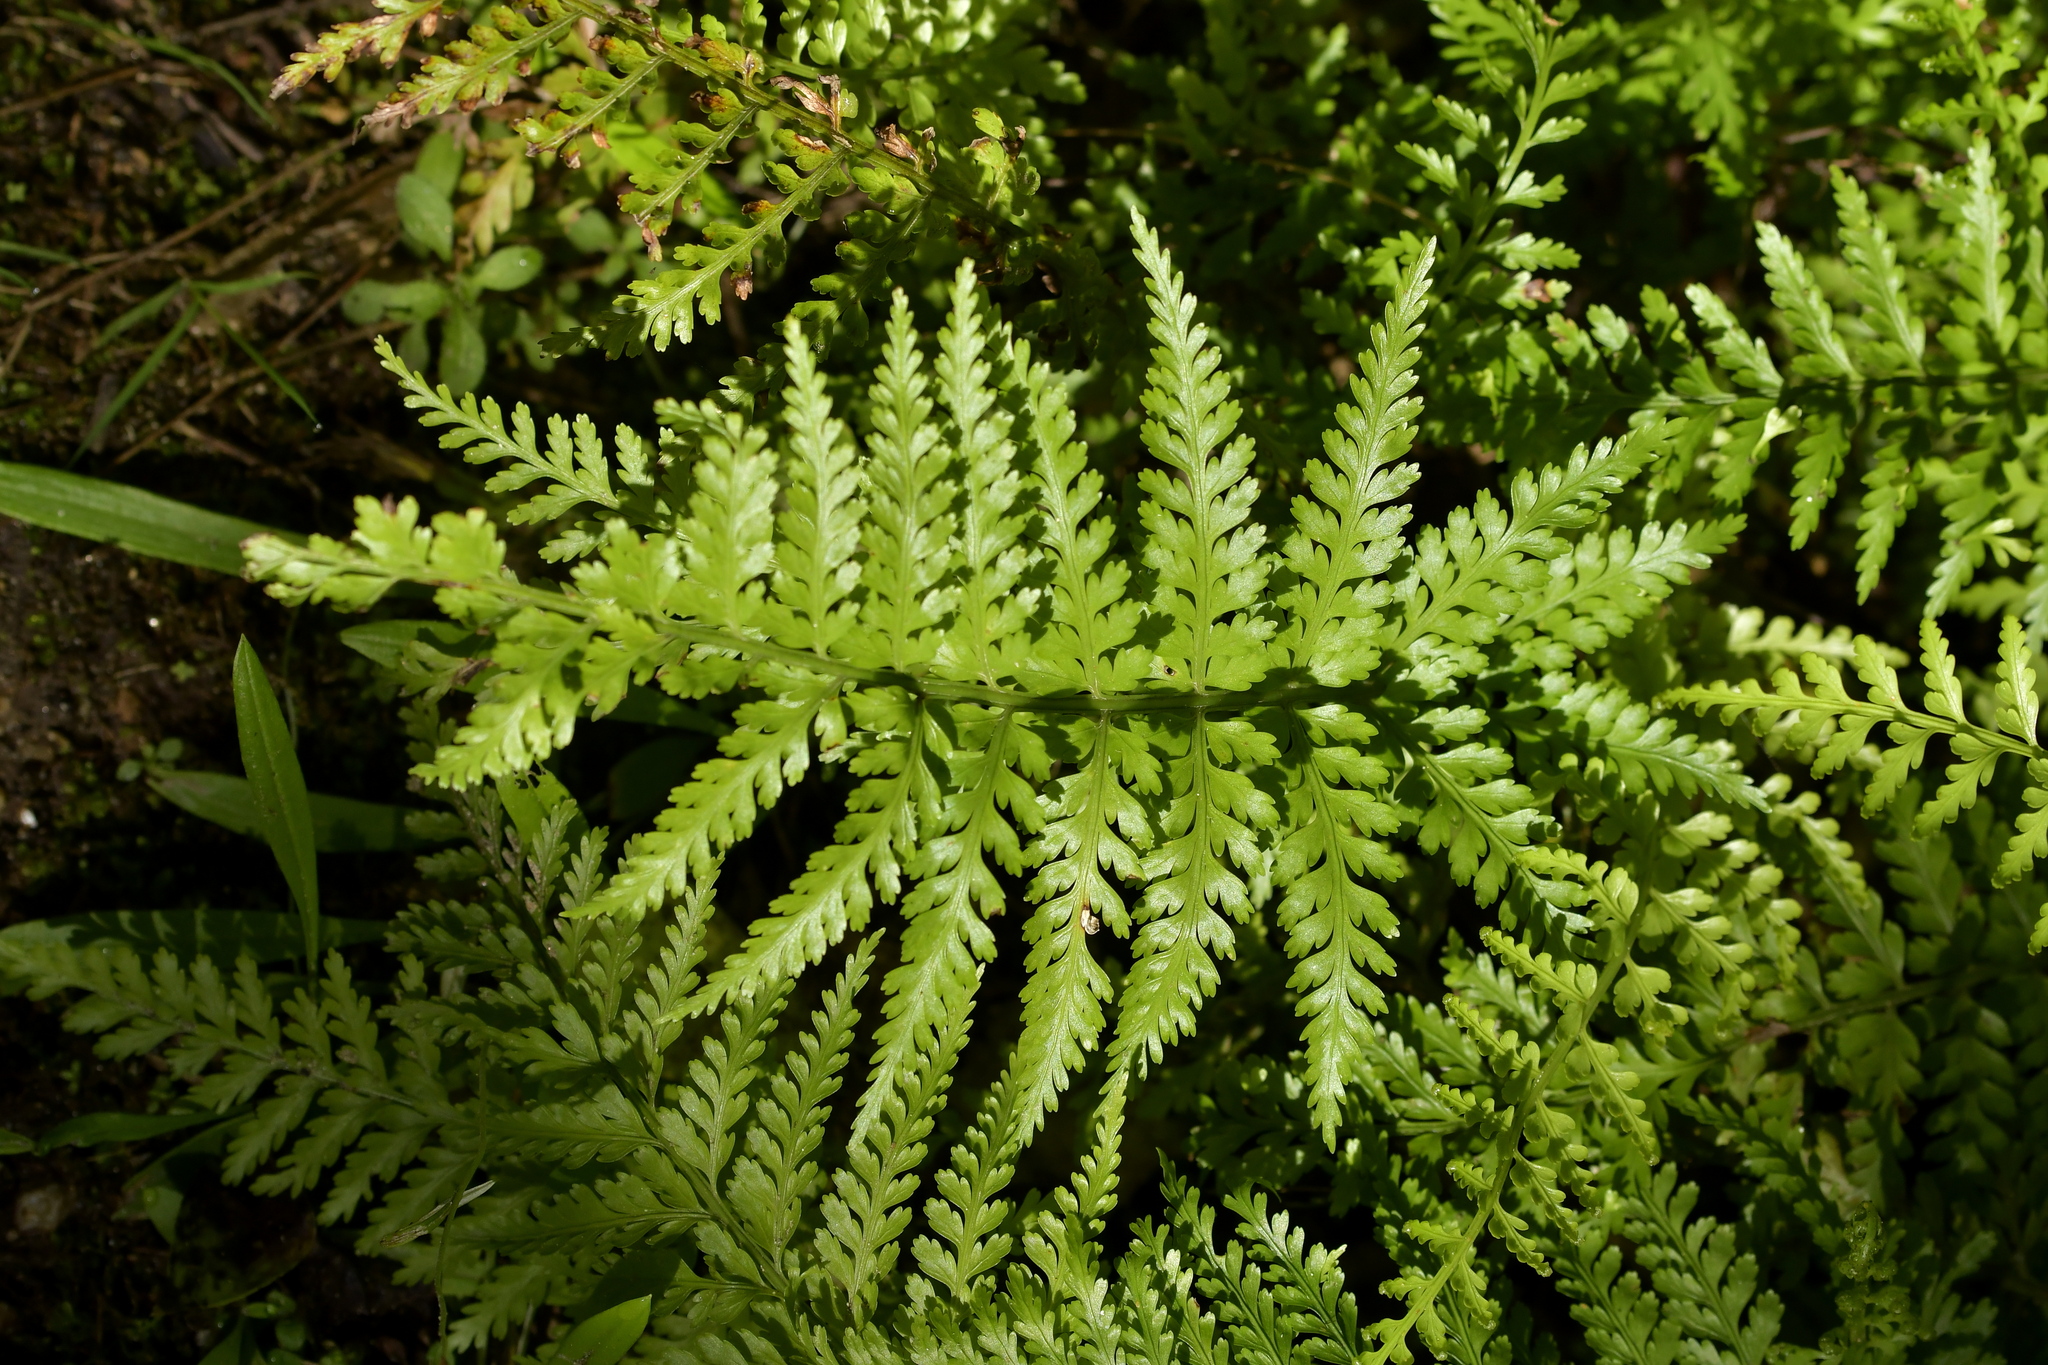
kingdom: Plantae
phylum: Tracheophyta
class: Polypodiopsida
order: Polypodiales
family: Aspleniaceae
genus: Asplenium
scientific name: Asplenium bulbiferum
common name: Mother fern
